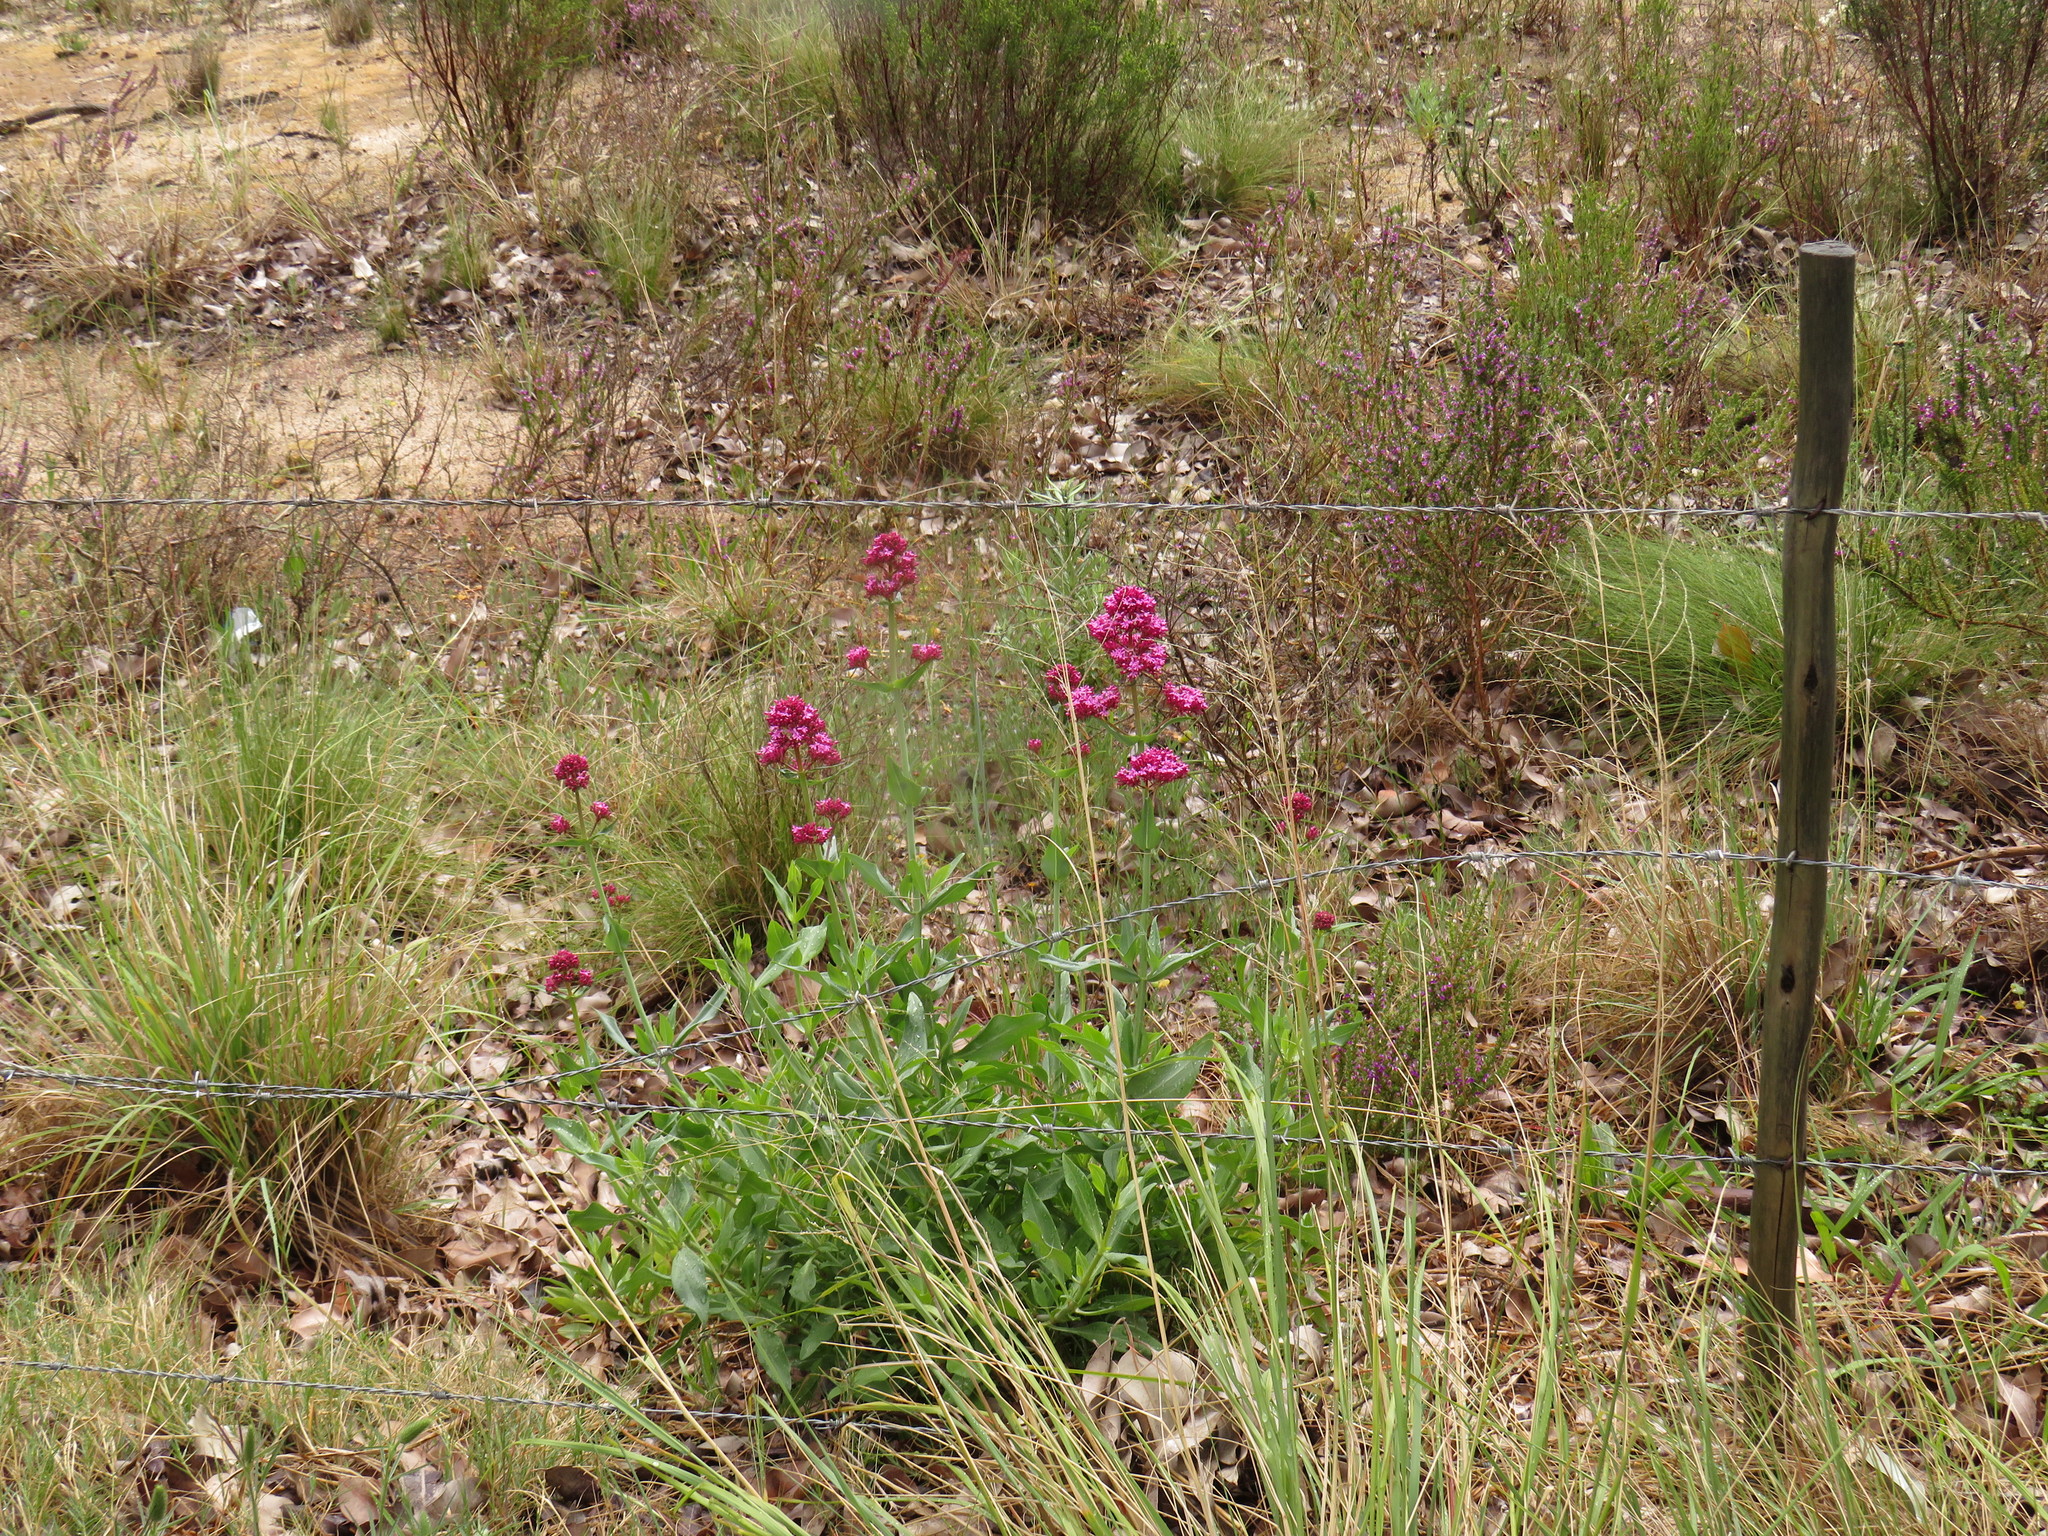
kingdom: Plantae
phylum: Tracheophyta
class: Magnoliopsida
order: Dipsacales
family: Caprifoliaceae
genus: Centranthus
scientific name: Centranthus ruber
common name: Red valerian
